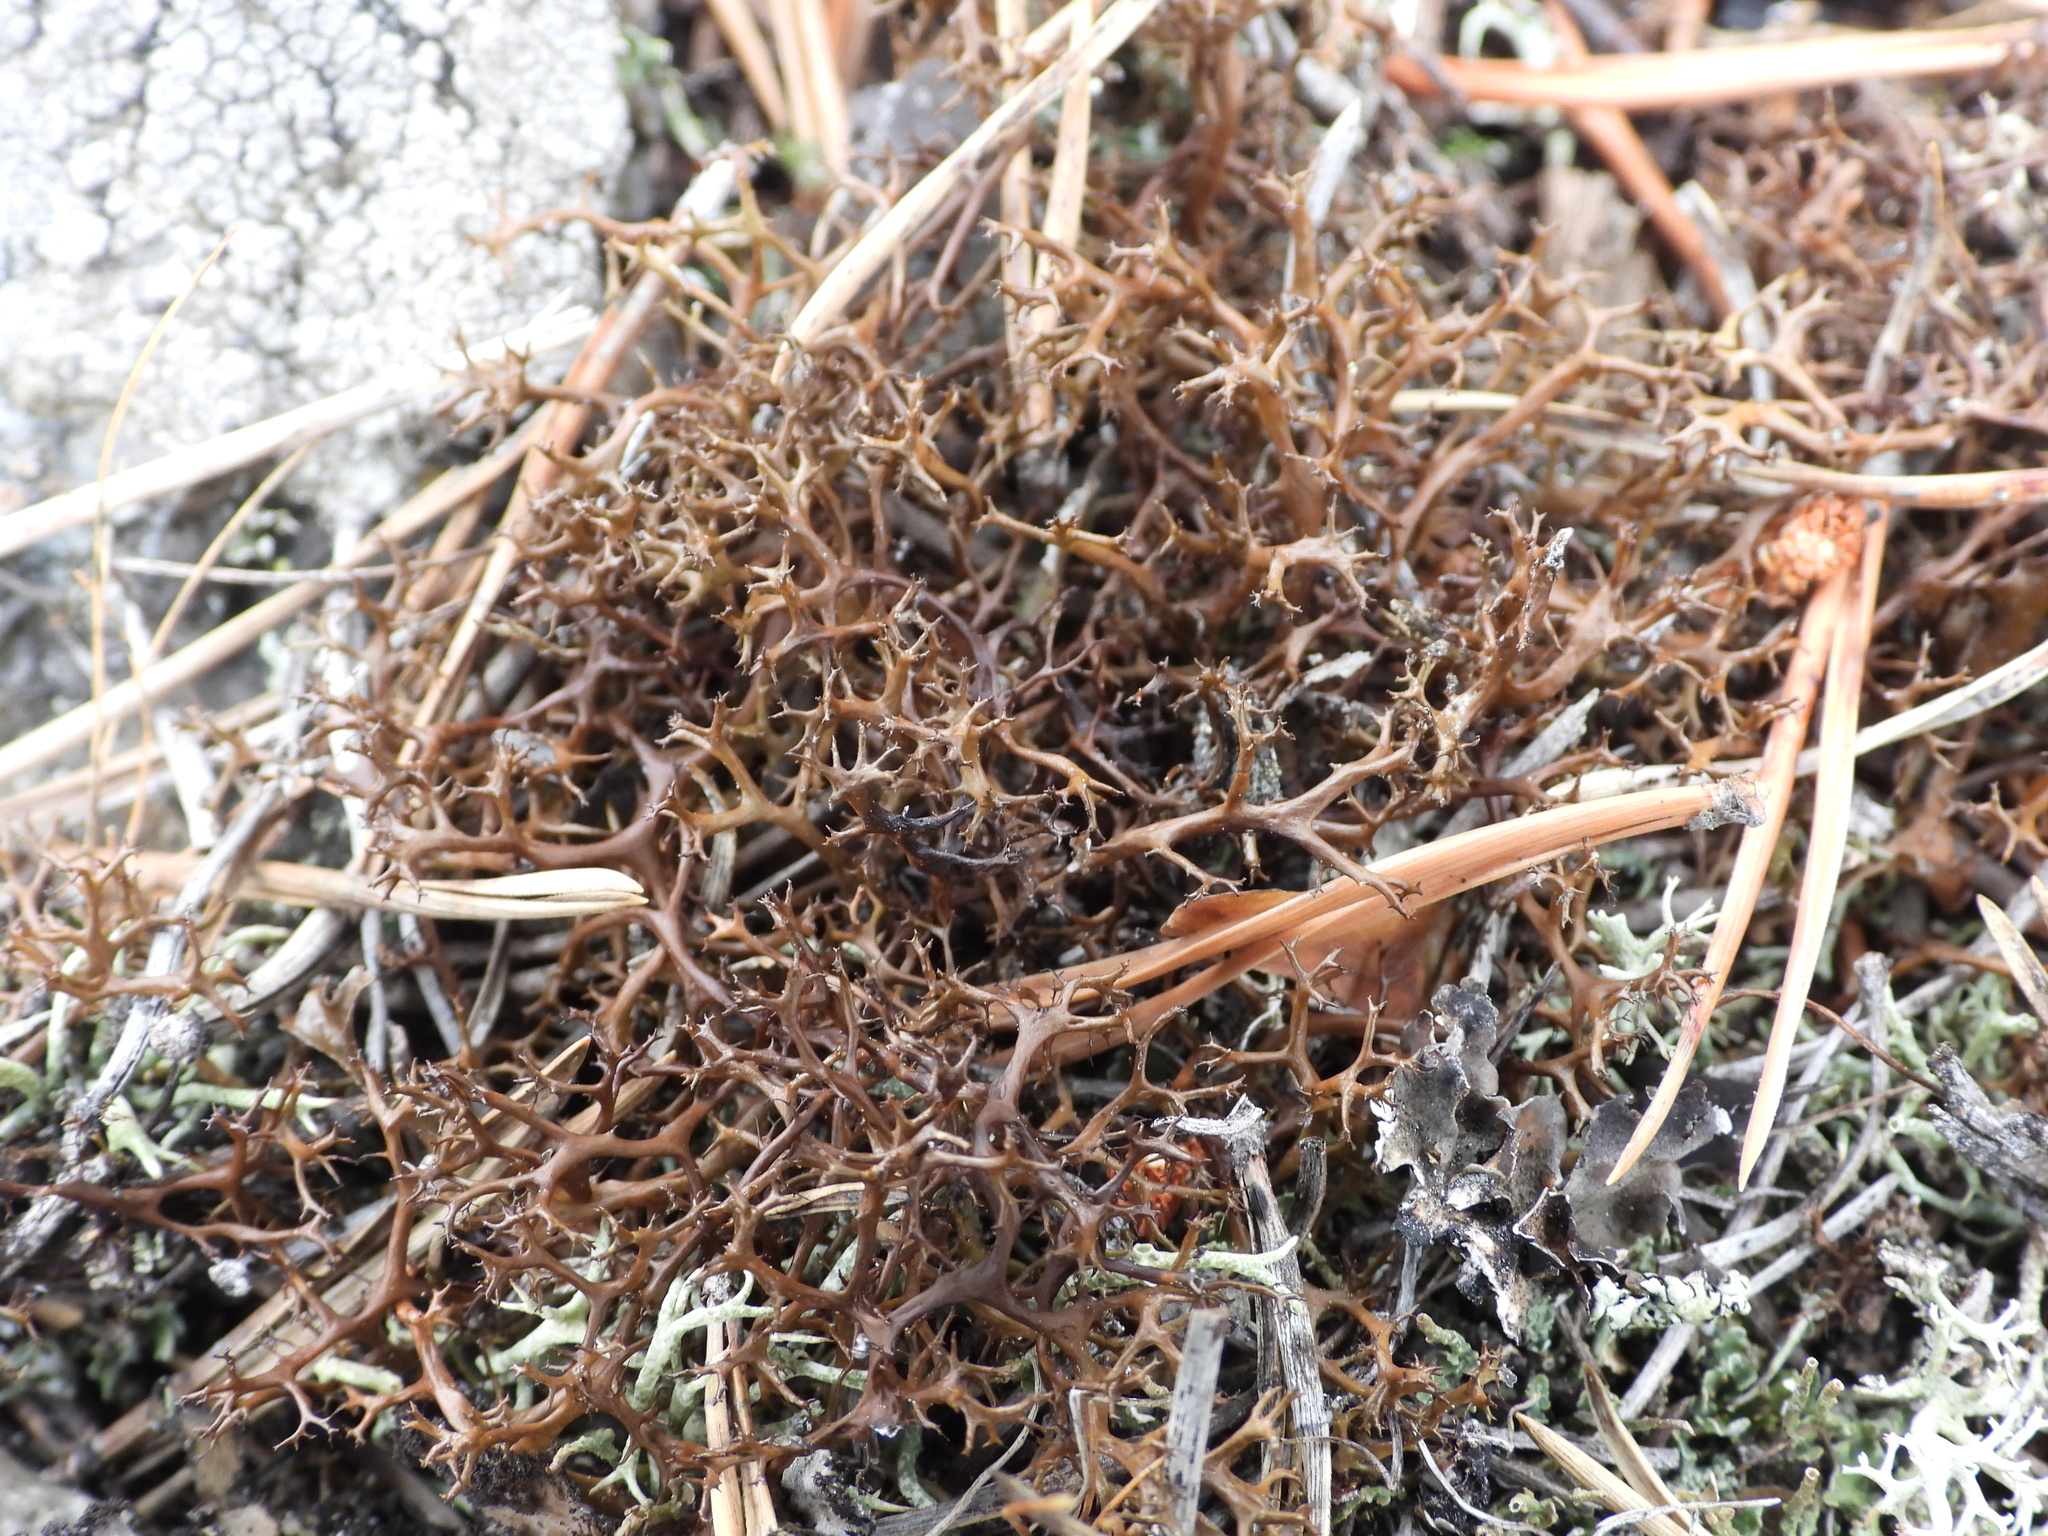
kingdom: Fungi
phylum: Ascomycota
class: Lecanoromycetes
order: Lecanorales
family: Parmeliaceae
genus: Cetraria
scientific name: Cetraria aculeata
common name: Spiny heath lichen
